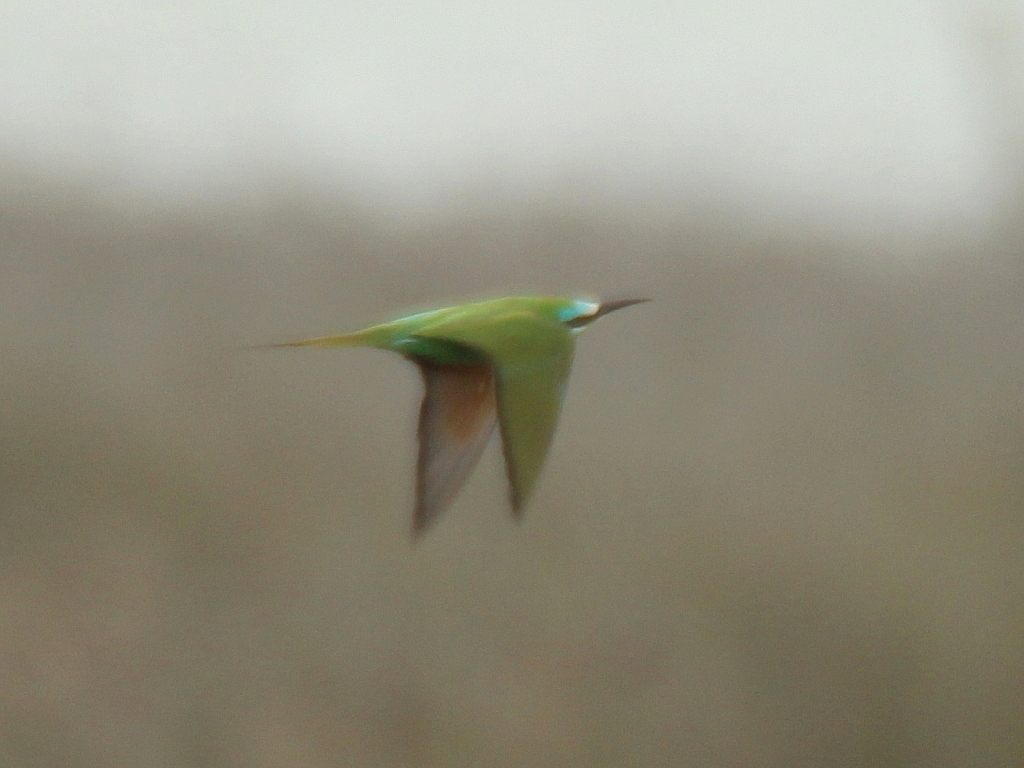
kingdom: Animalia
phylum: Chordata
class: Aves
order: Coraciiformes
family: Meropidae
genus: Merops
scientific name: Merops persicus
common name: Blue-cheeked bee-eater
